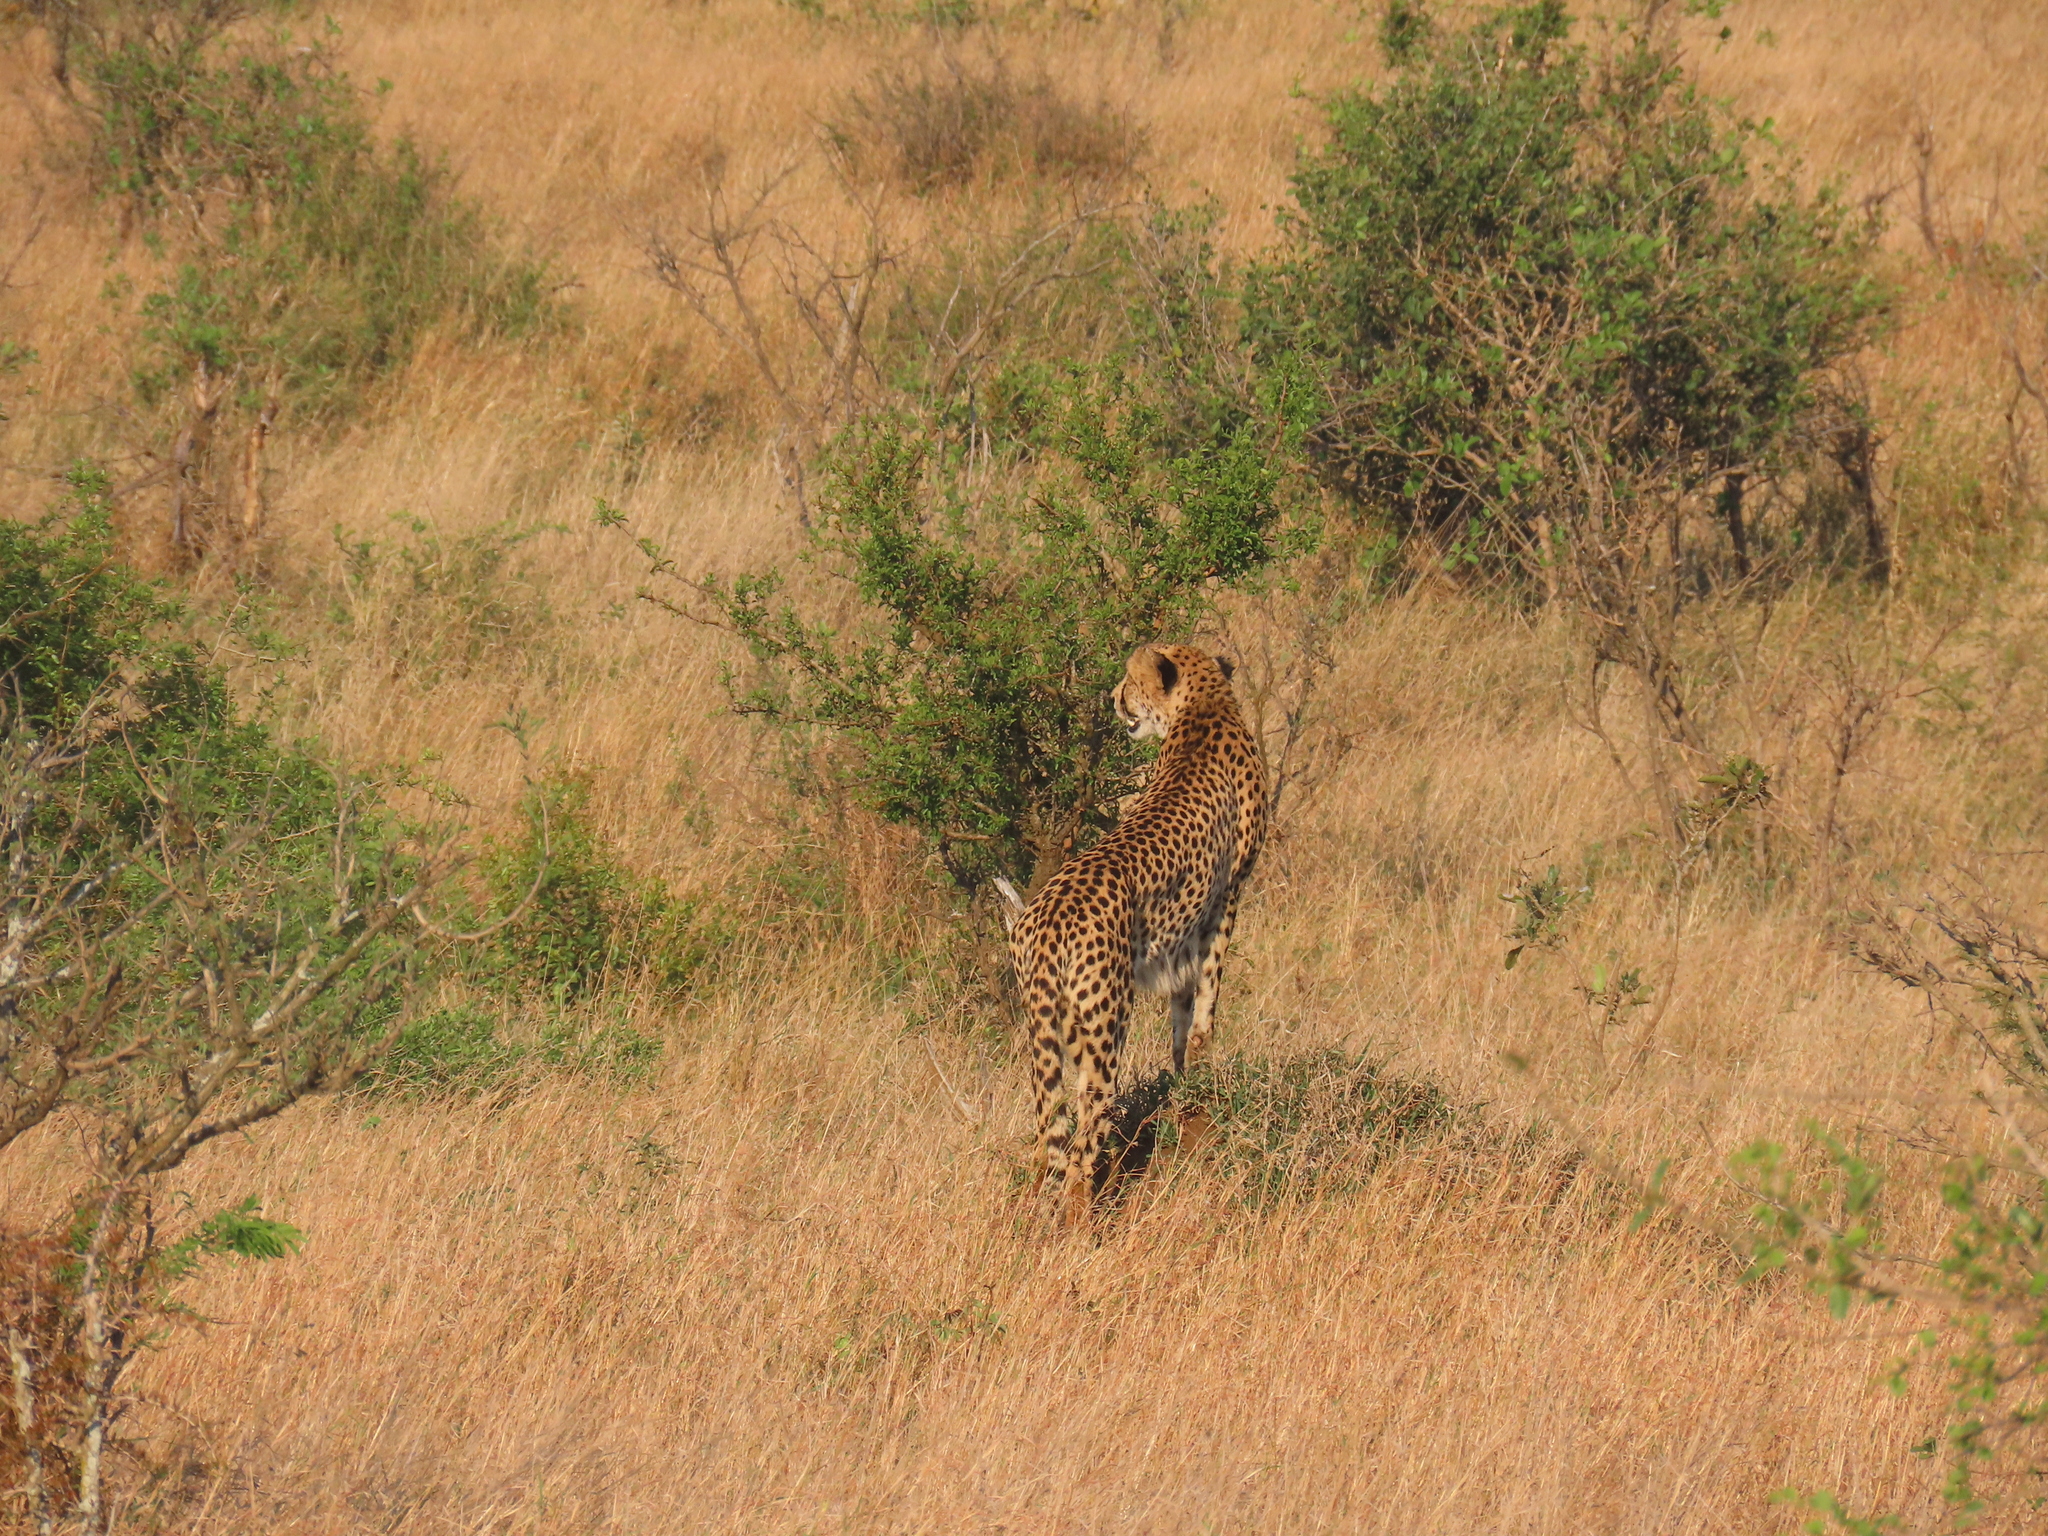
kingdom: Animalia
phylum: Chordata
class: Mammalia
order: Carnivora
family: Felidae
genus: Acinonyx
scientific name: Acinonyx jubatus
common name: Cheetah
